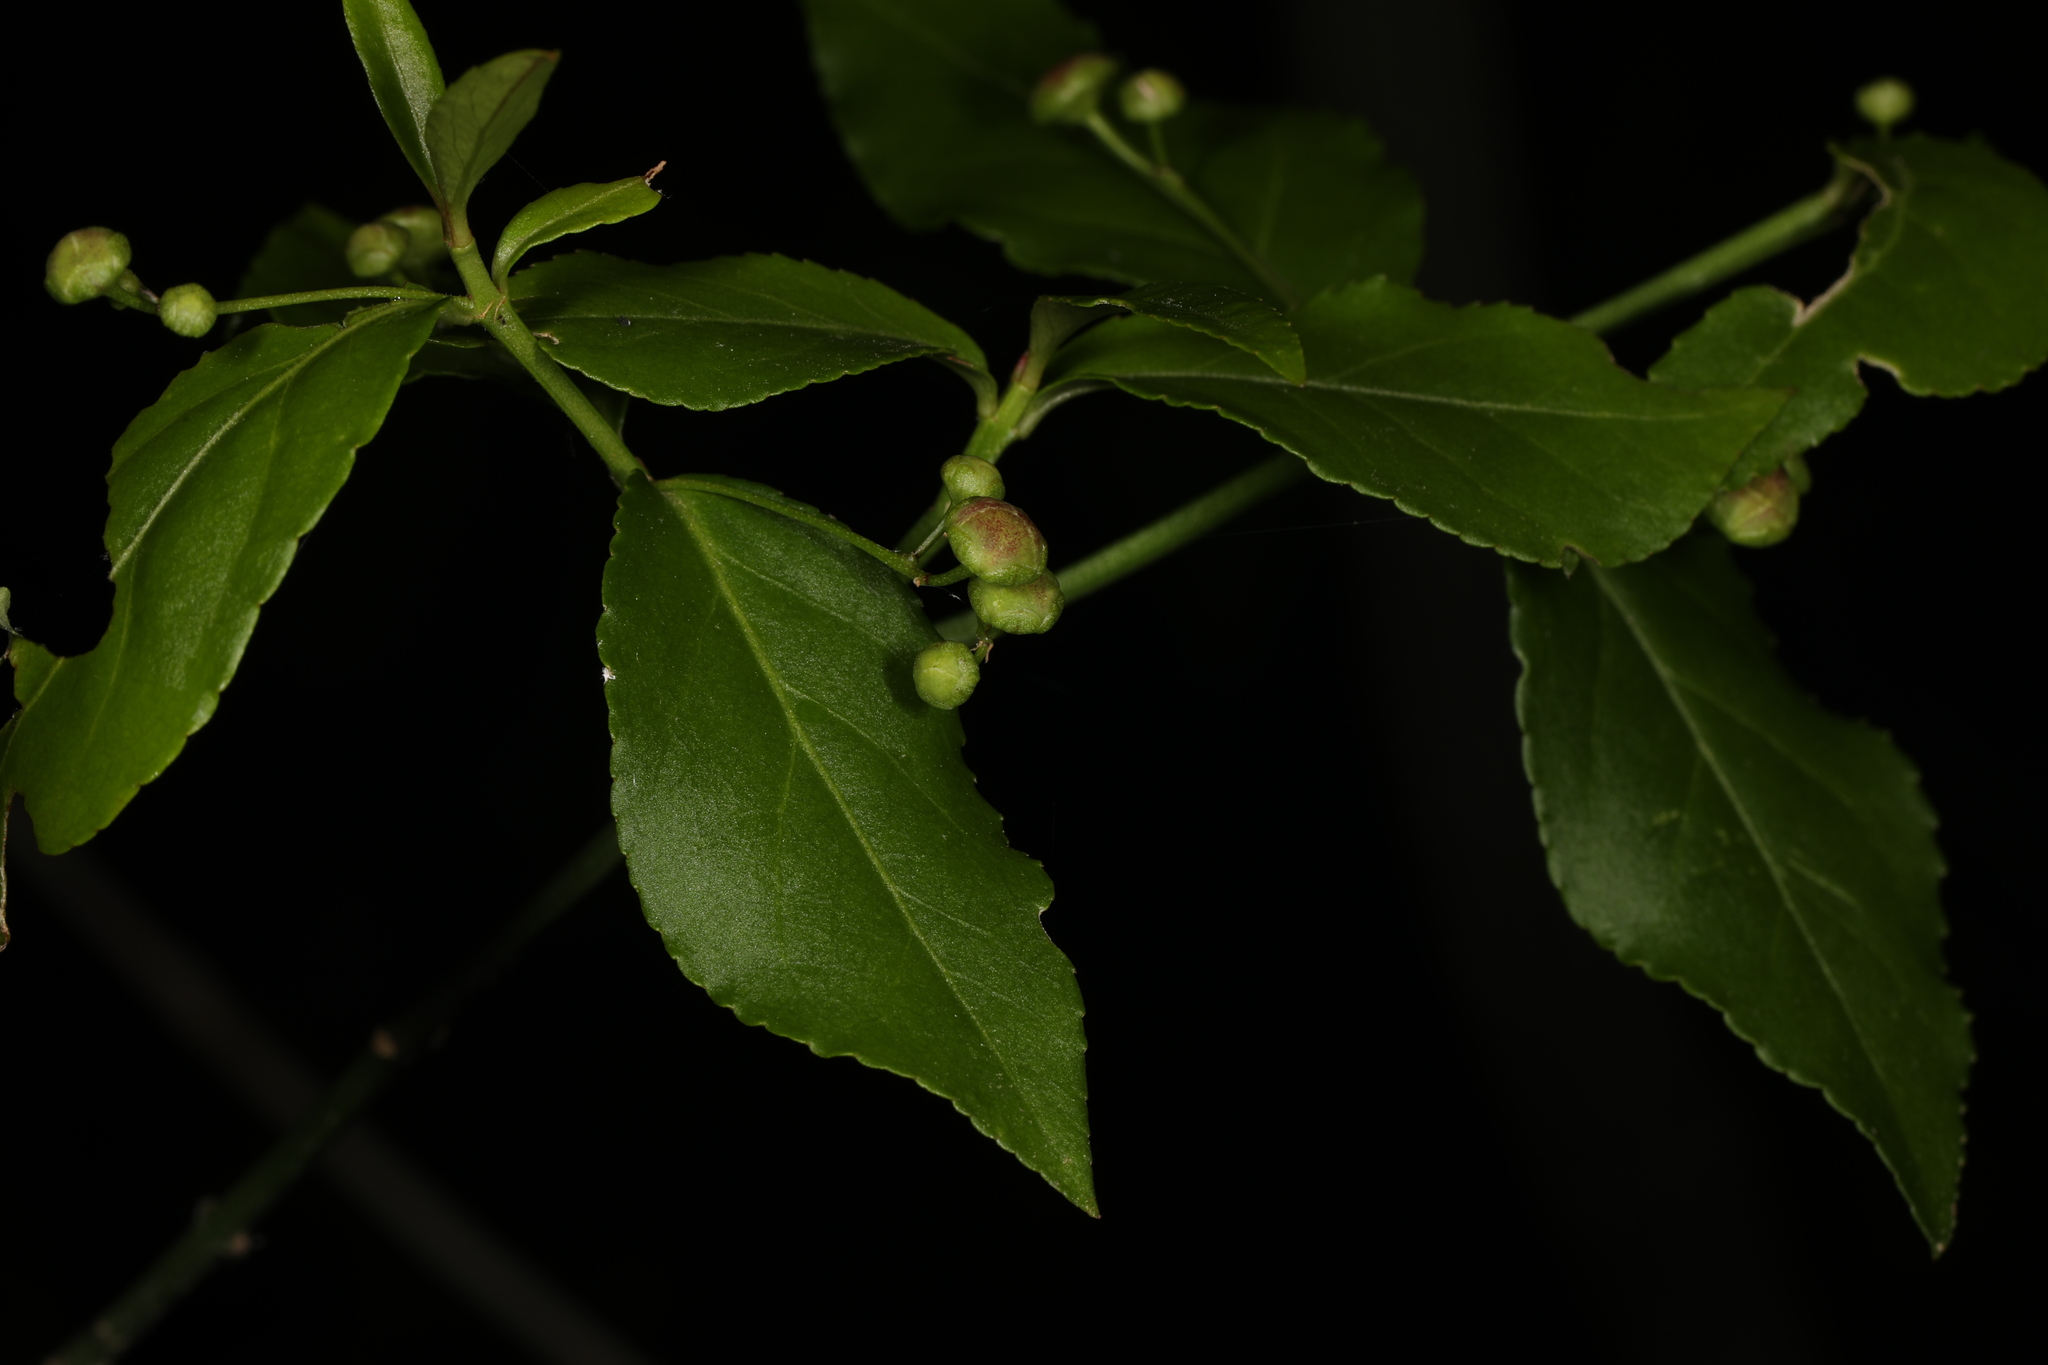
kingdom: Plantae
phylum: Tracheophyta
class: Magnoliopsida
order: Celastrales
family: Celastraceae
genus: Euonymus
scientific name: Euonymus americanus
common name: Bursting-heart
